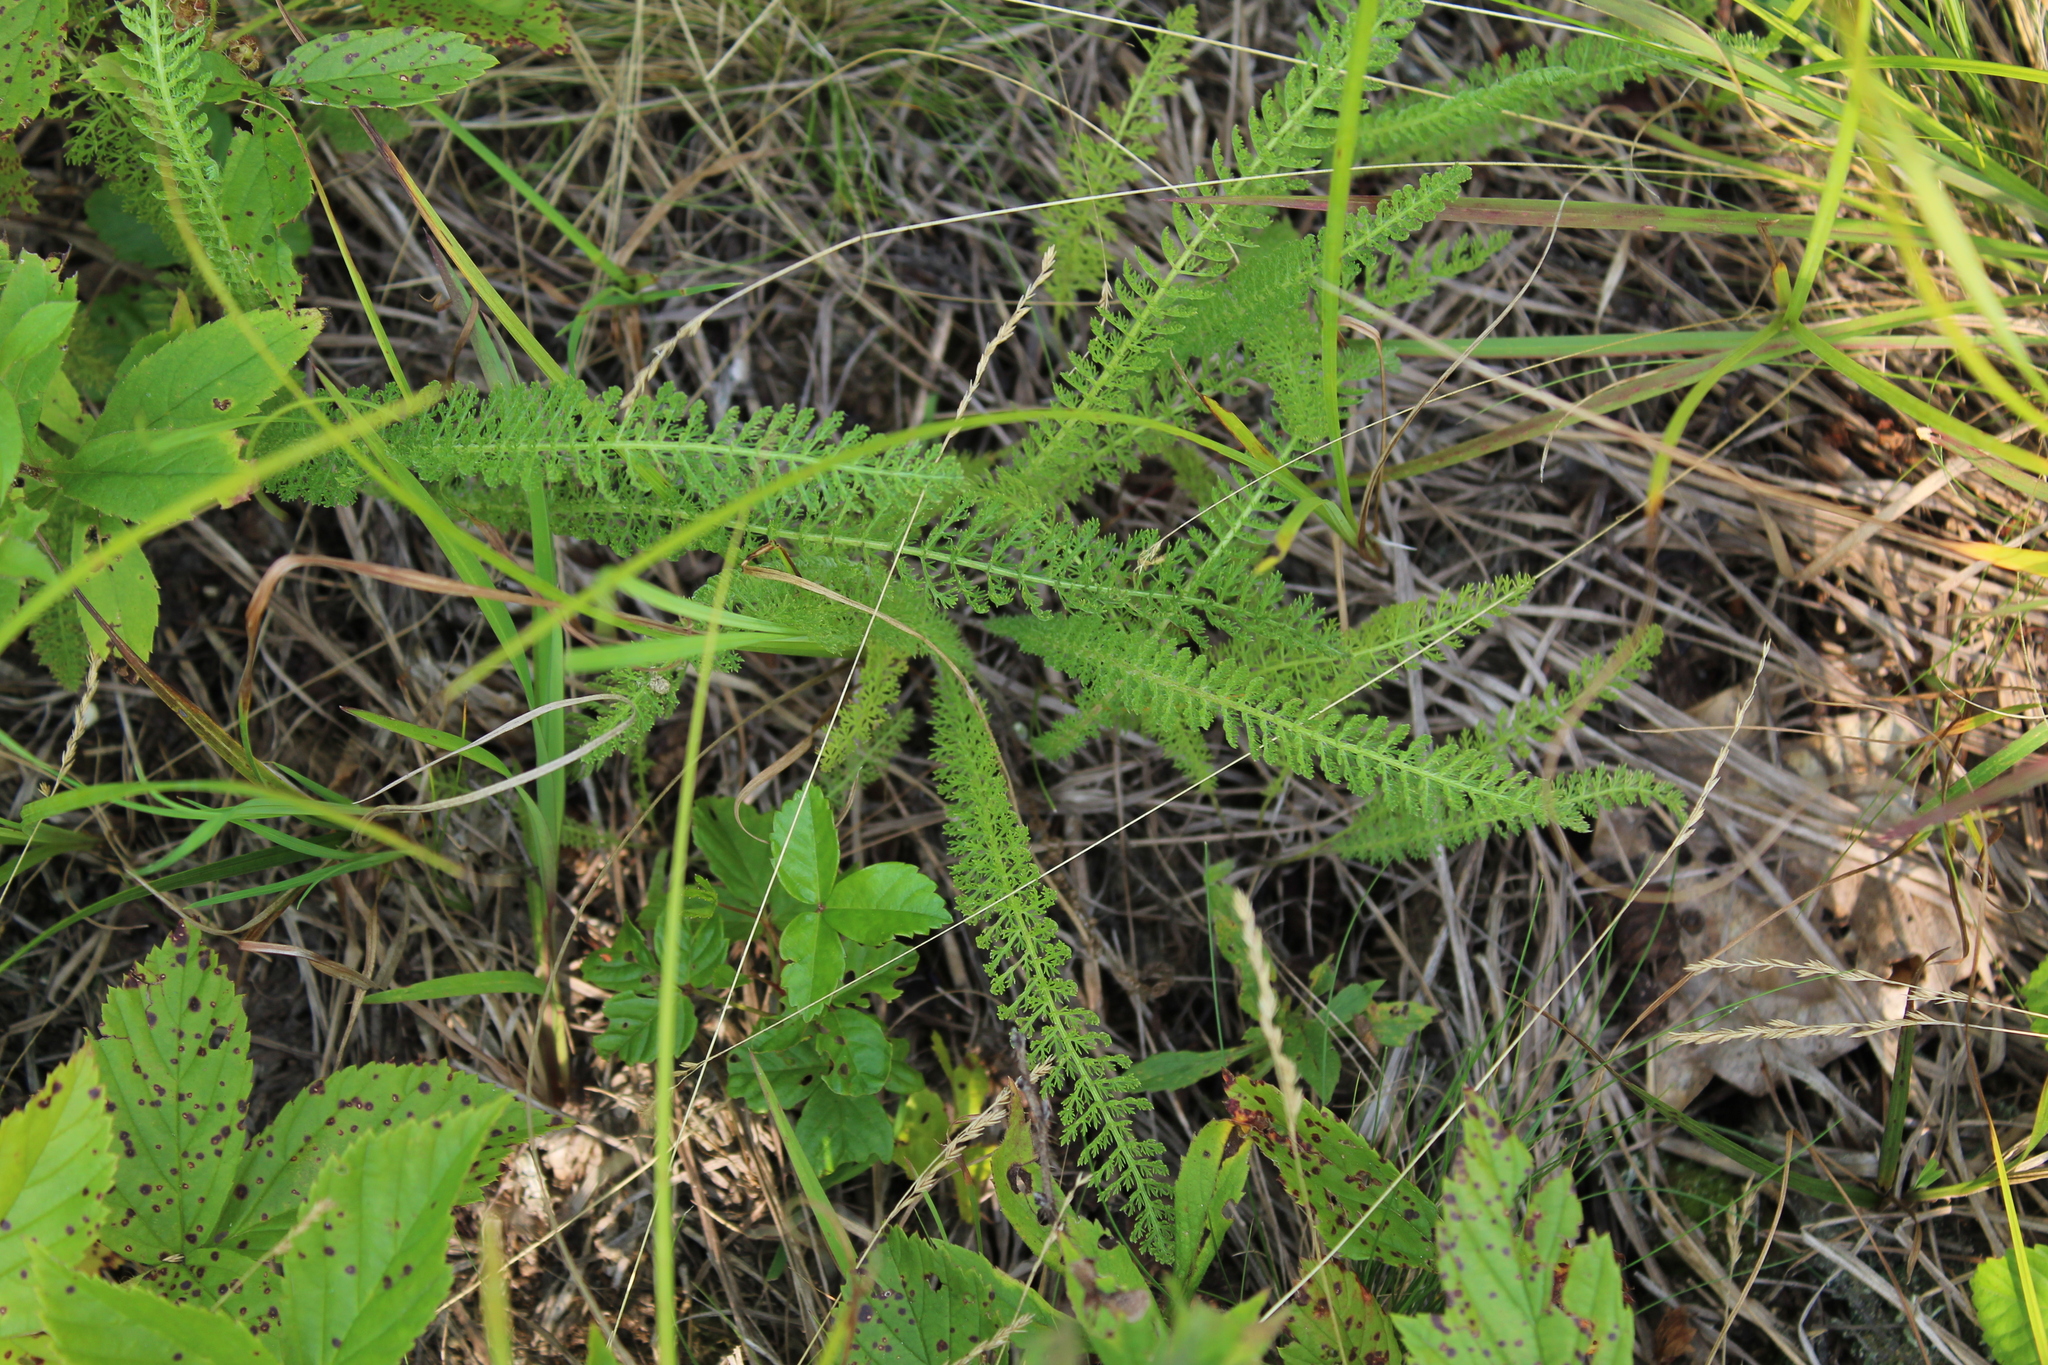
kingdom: Plantae
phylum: Tracheophyta
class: Magnoliopsida
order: Asterales
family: Asteraceae
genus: Achillea
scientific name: Achillea millefolium
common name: Yarrow
